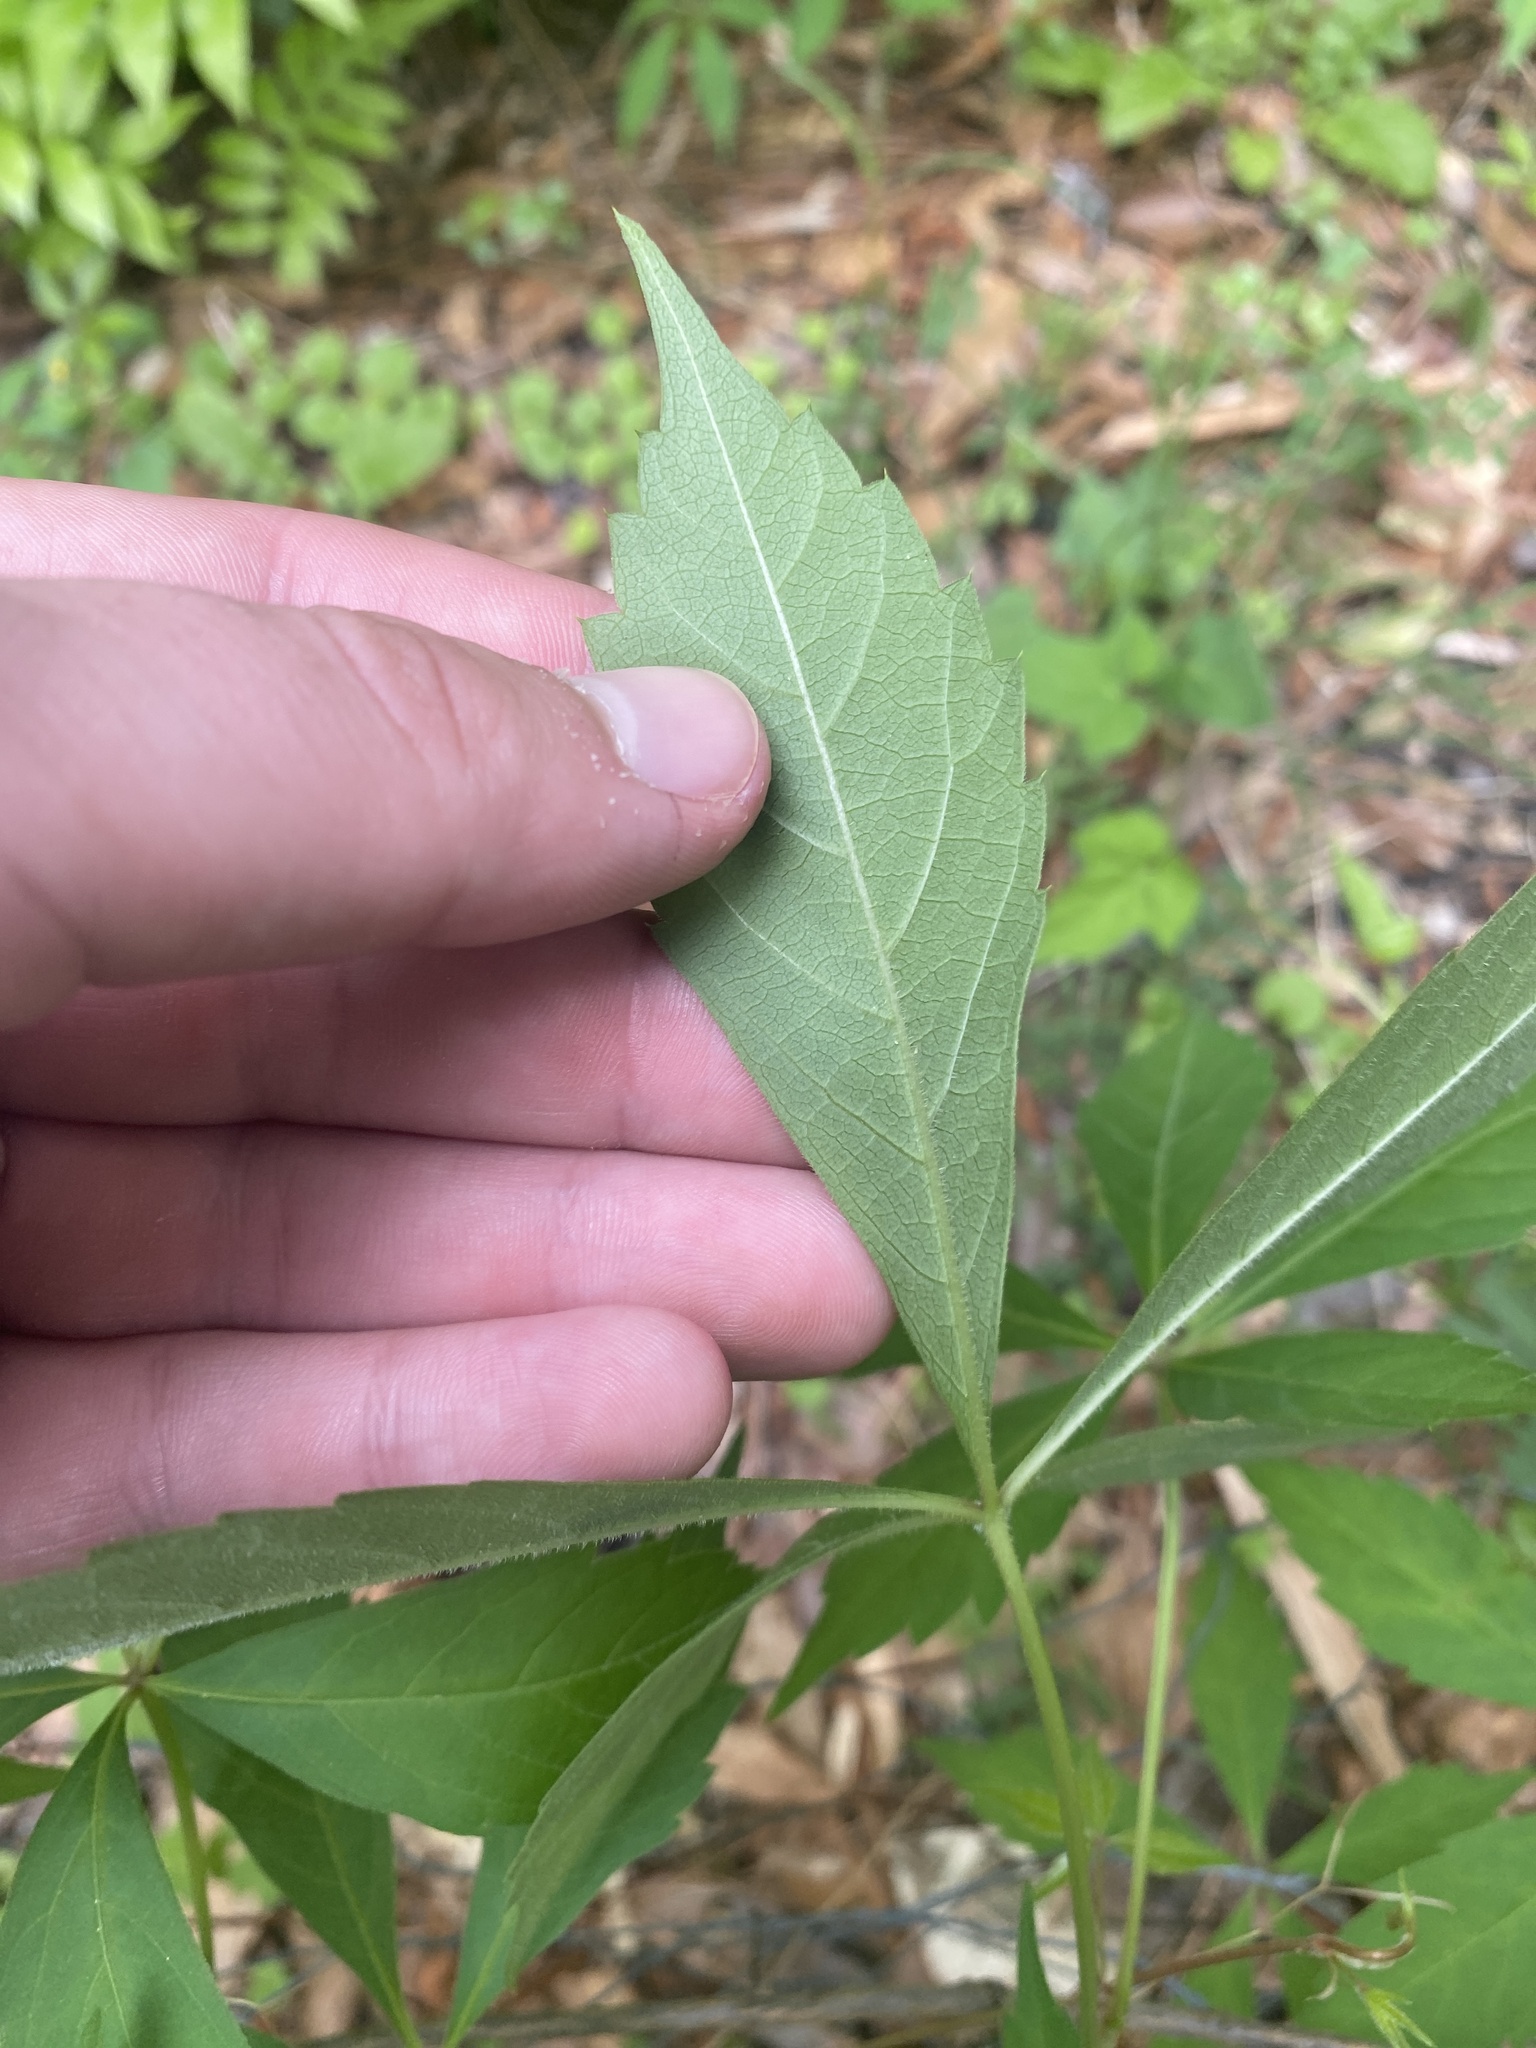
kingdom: Plantae
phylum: Tracheophyta
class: Magnoliopsida
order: Vitales
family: Vitaceae
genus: Parthenocissus
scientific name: Parthenocissus quinquefolia
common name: Virginia-creeper
